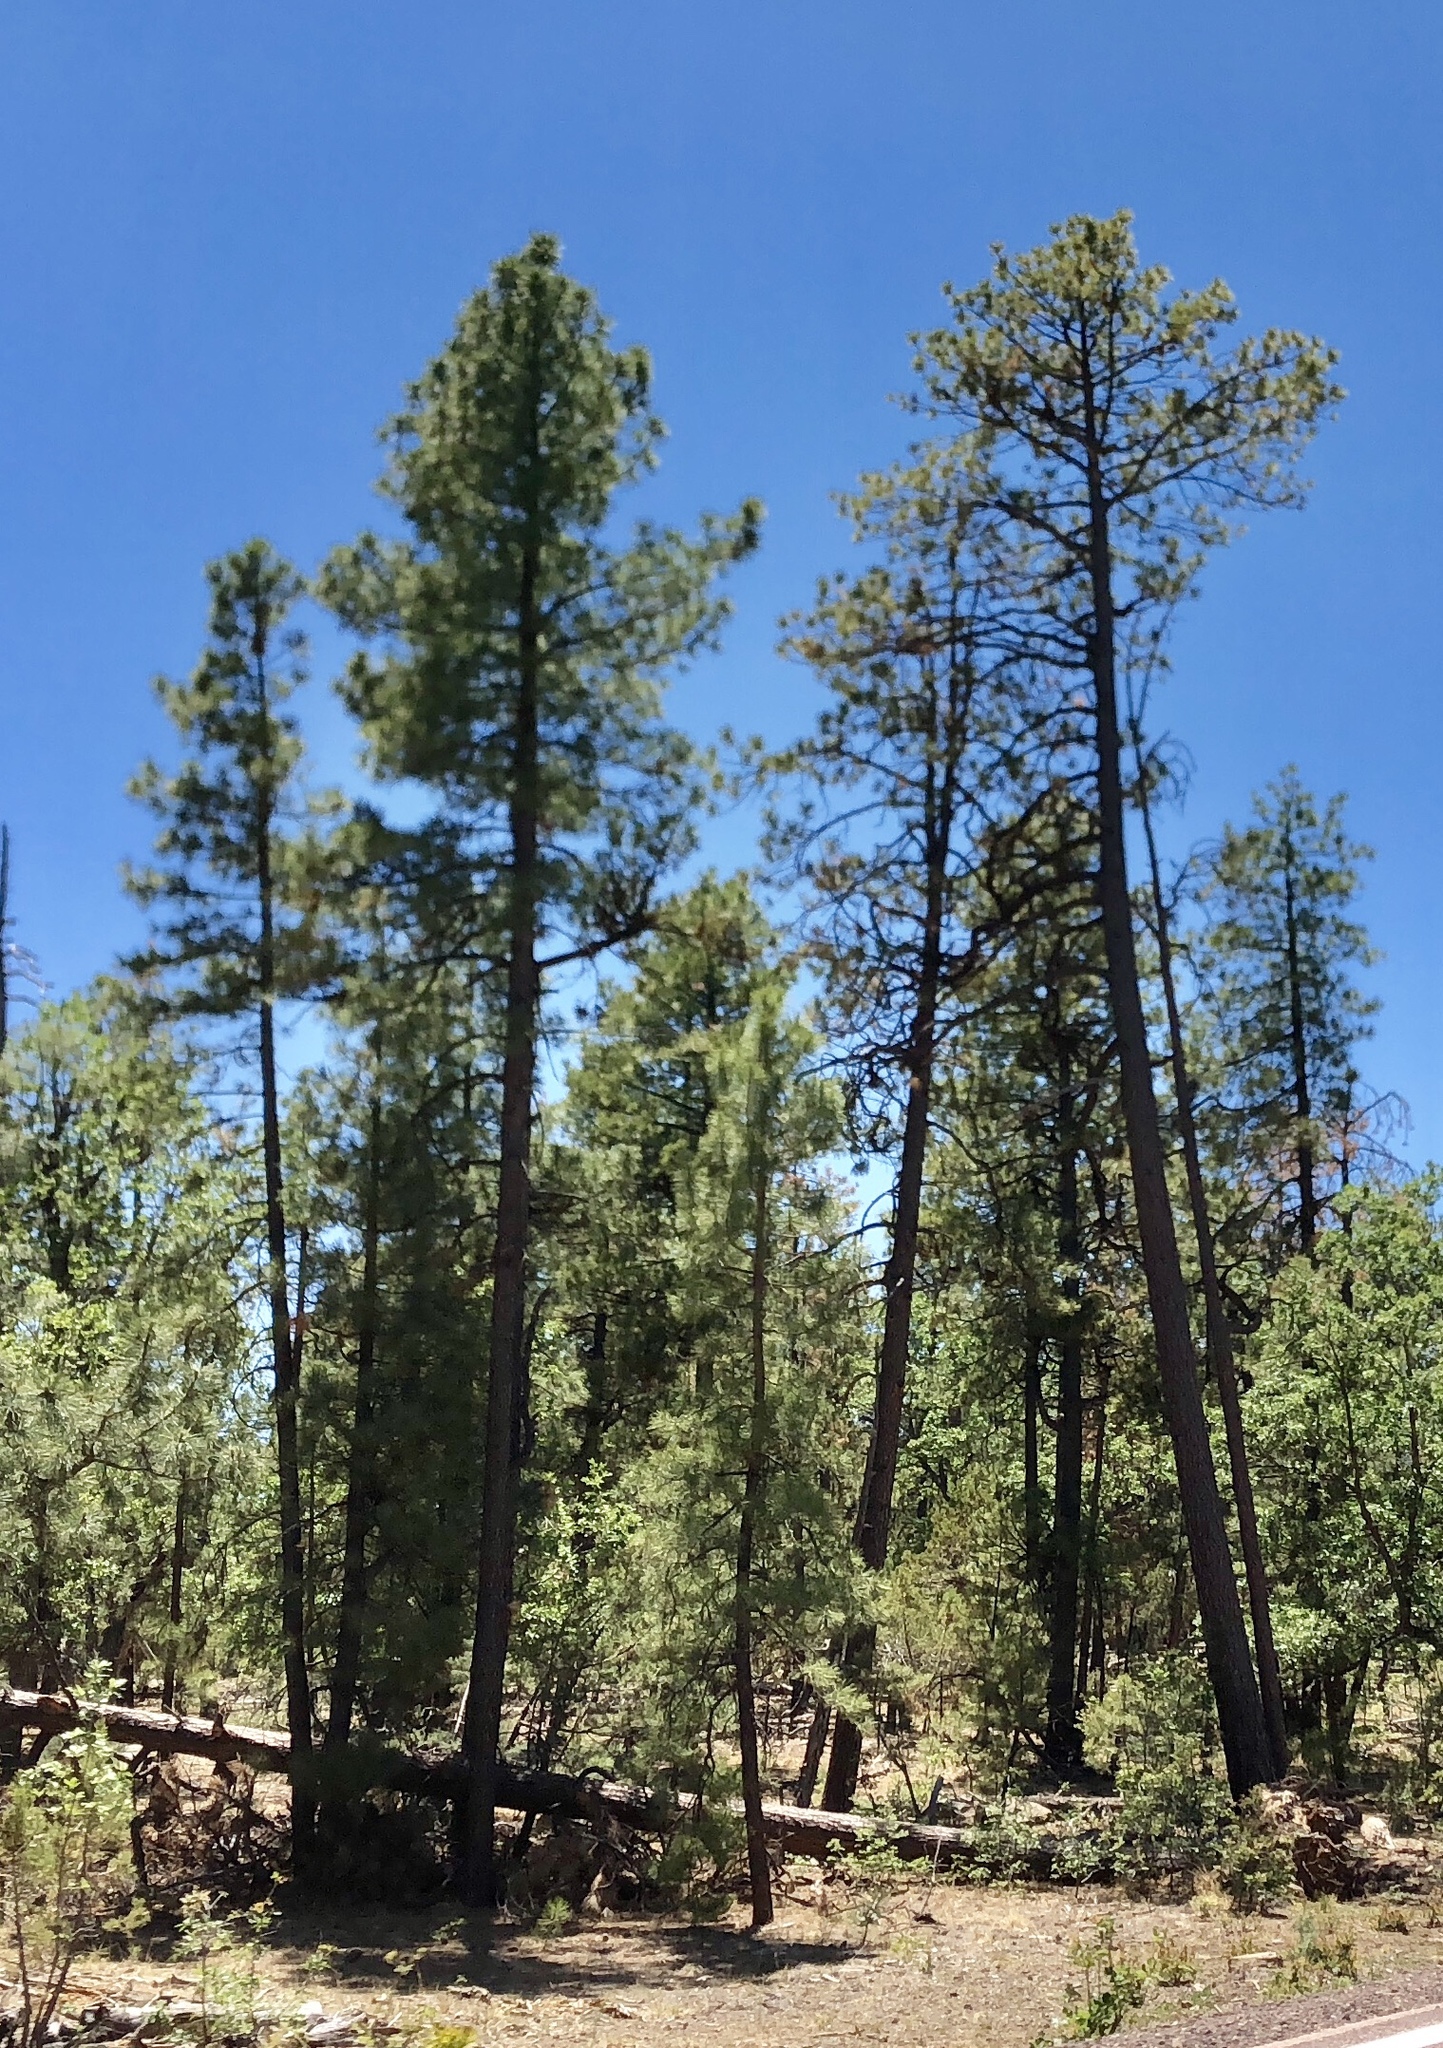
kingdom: Plantae
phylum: Tracheophyta
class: Pinopsida
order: Pinales
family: Pinaceae
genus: Pinus
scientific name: Pinus ponderosa
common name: Western yellow-pine
